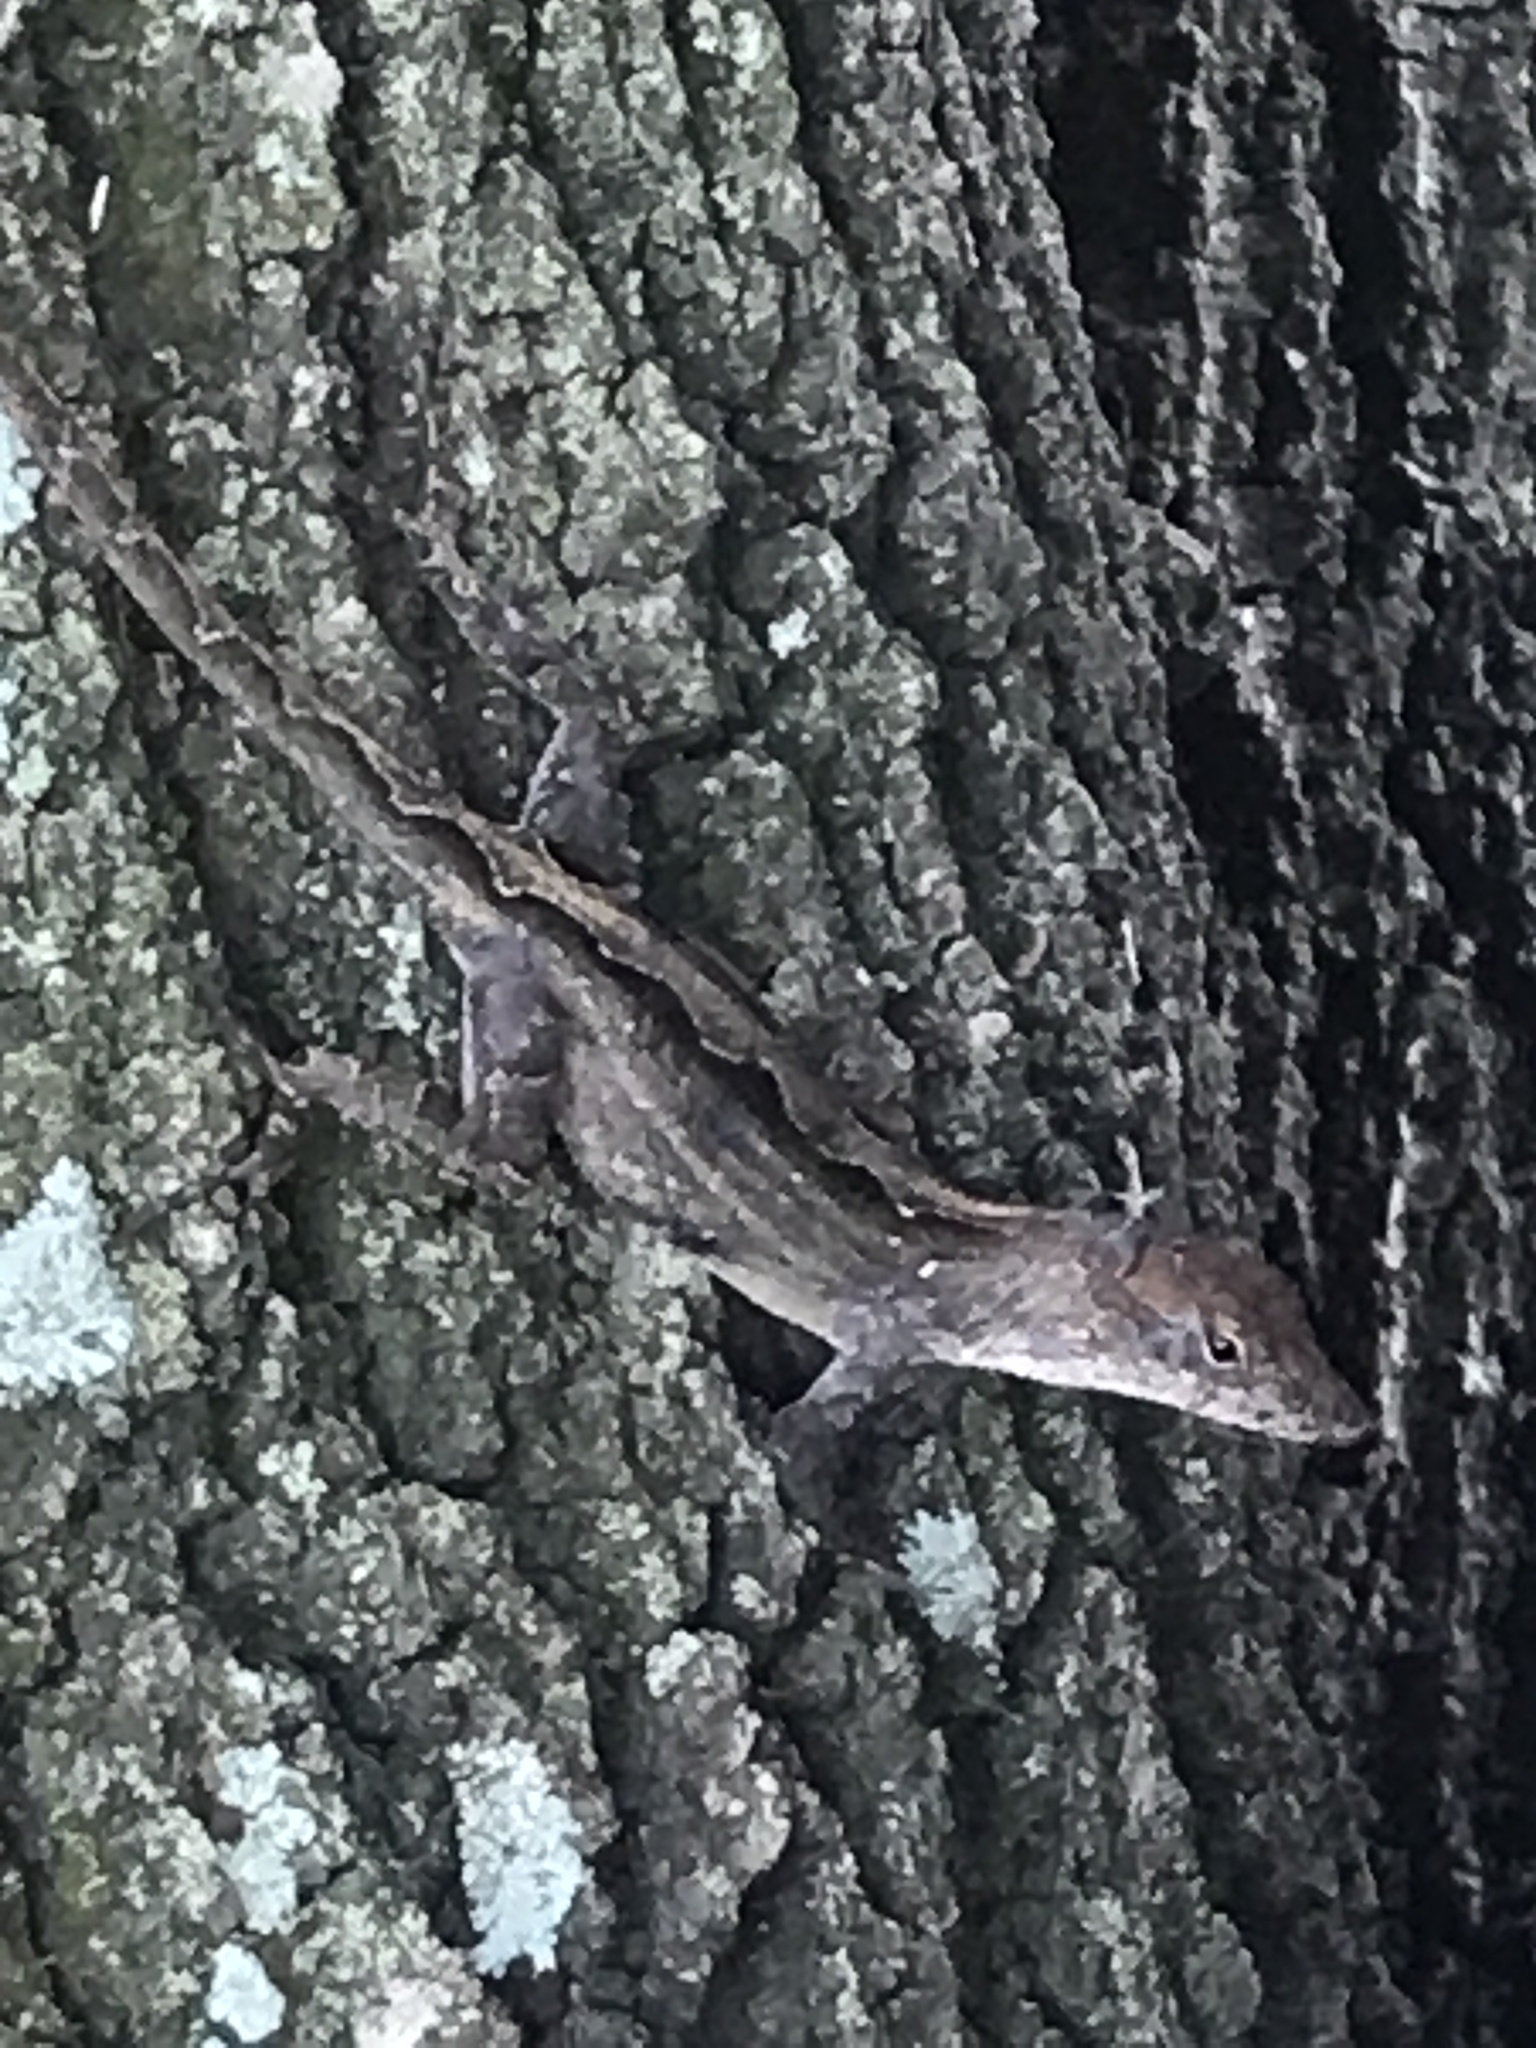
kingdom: Animalia
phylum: Chordata
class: Squamata
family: Dactyloidae
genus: Anolis
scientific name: Anolis sagrei
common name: Brown anole
